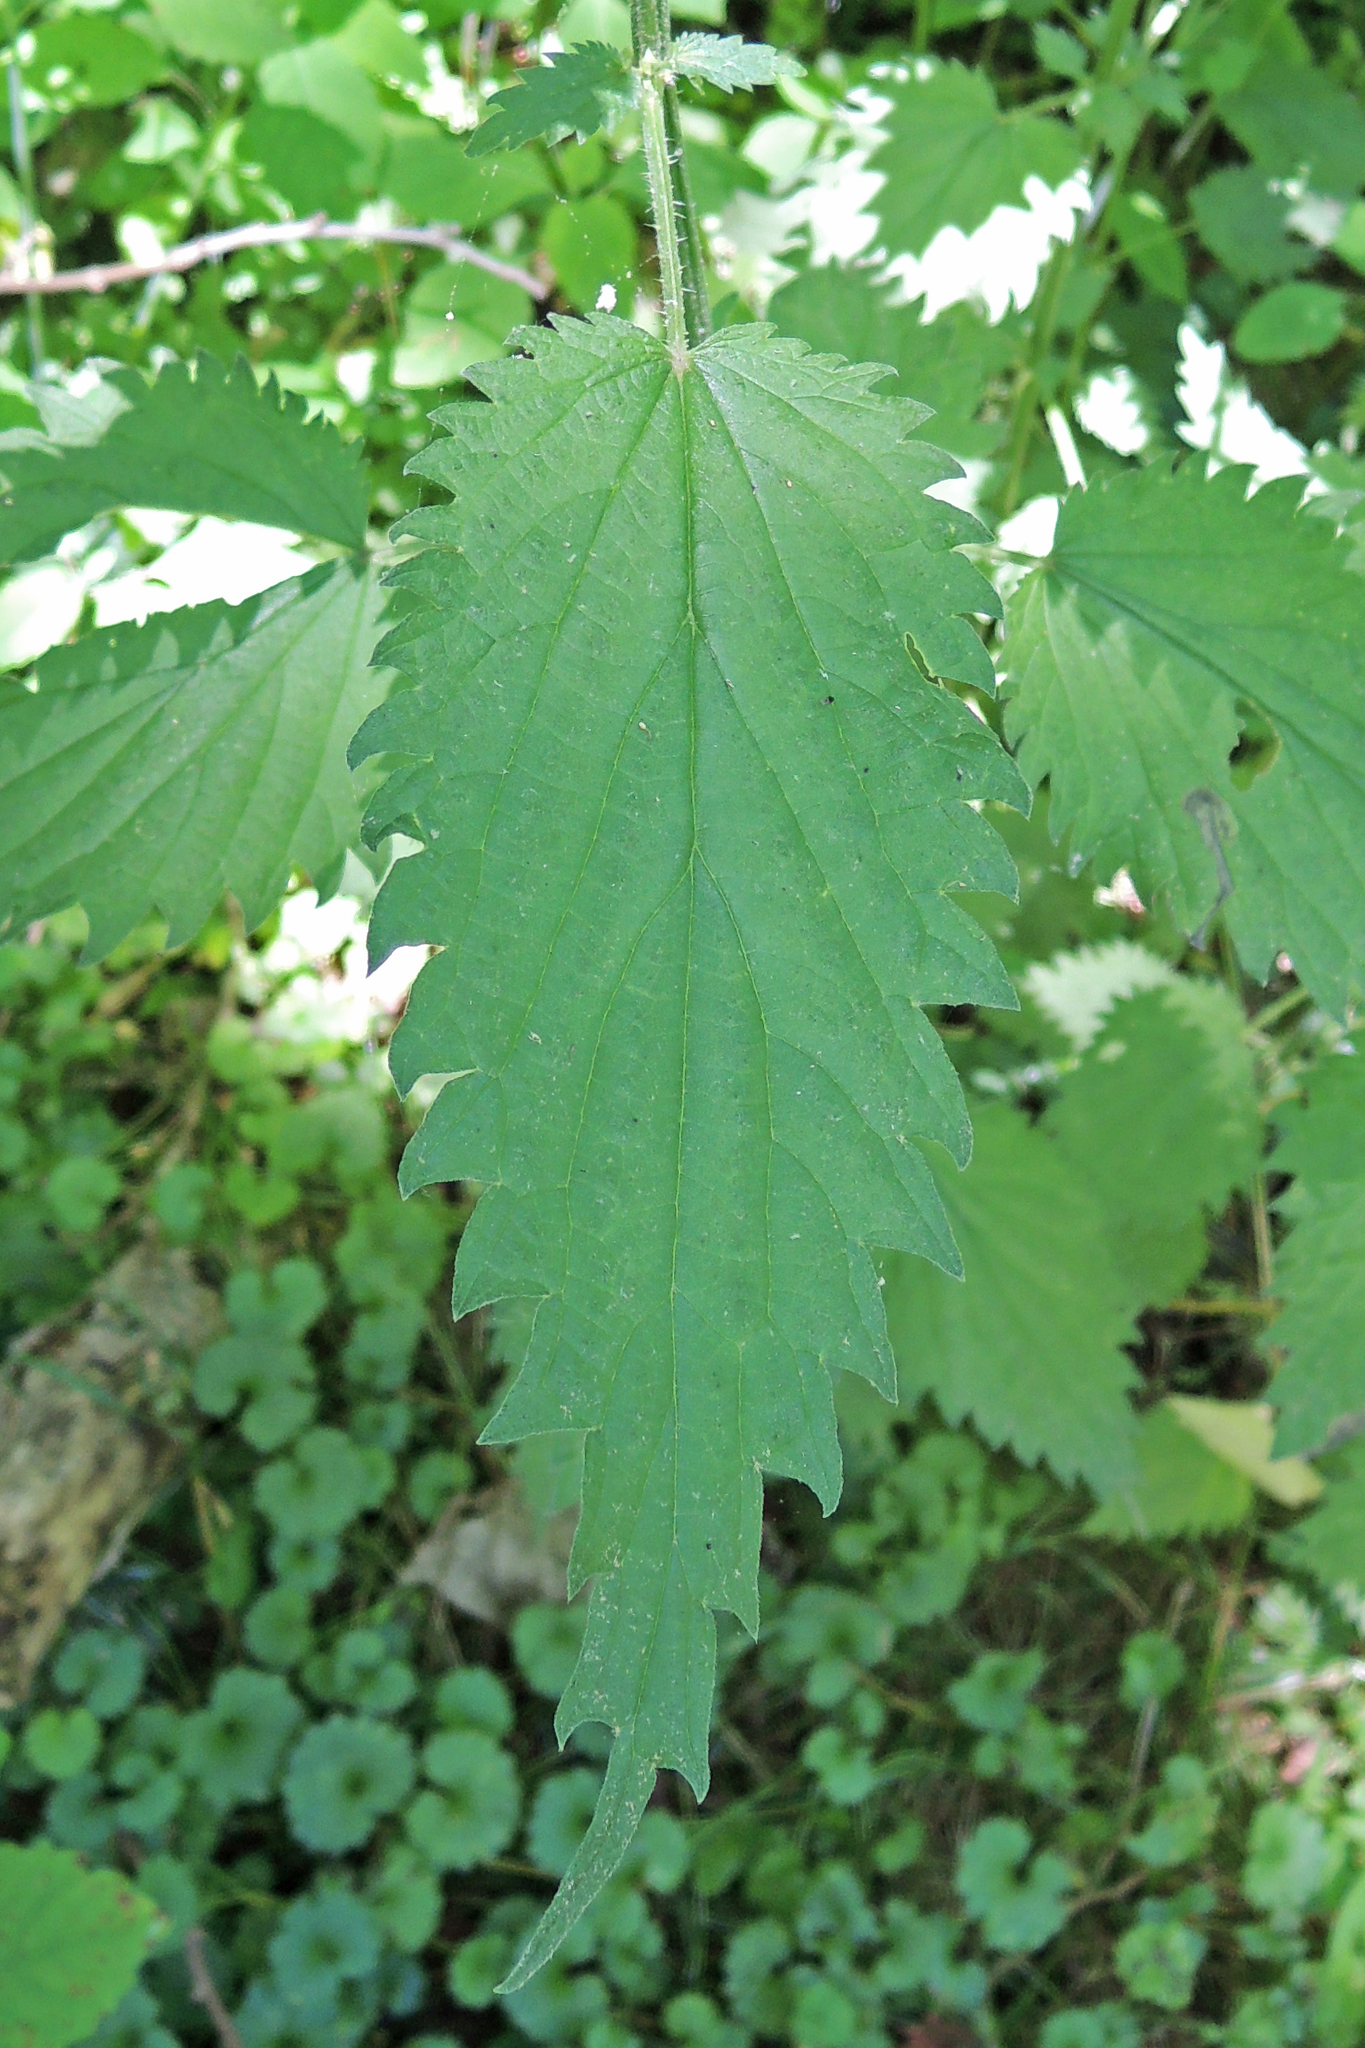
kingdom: Plantae
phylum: Tracheophyta
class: Magnoliopsida
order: Rosales
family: Urticaceae
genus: Urtica
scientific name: Urtica dioica
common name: Common nettle
